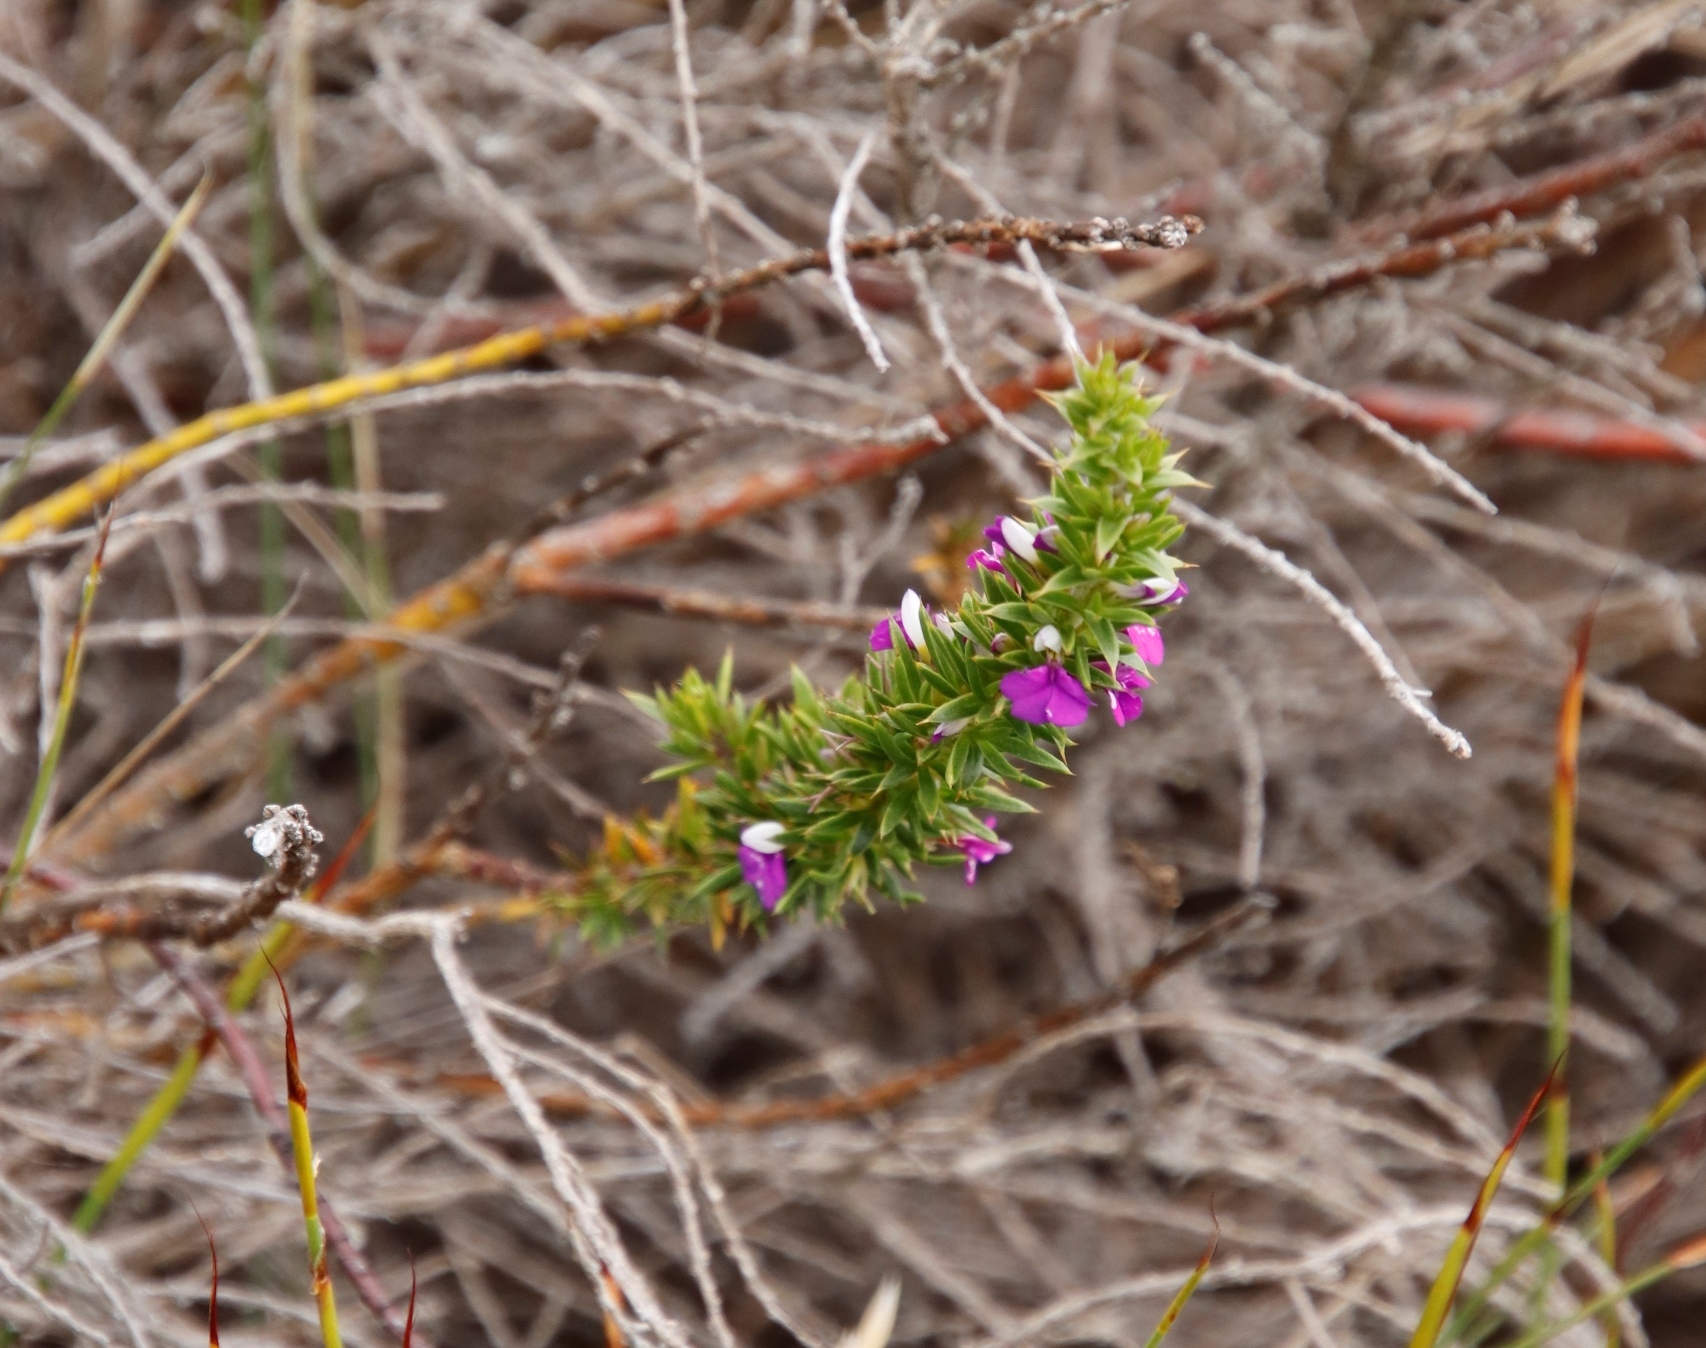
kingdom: Plantae
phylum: Tracheophyta
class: Magnoliopsida
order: Fabales
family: Polygalaceae
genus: Muraltia
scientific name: Muraltia heisteria
